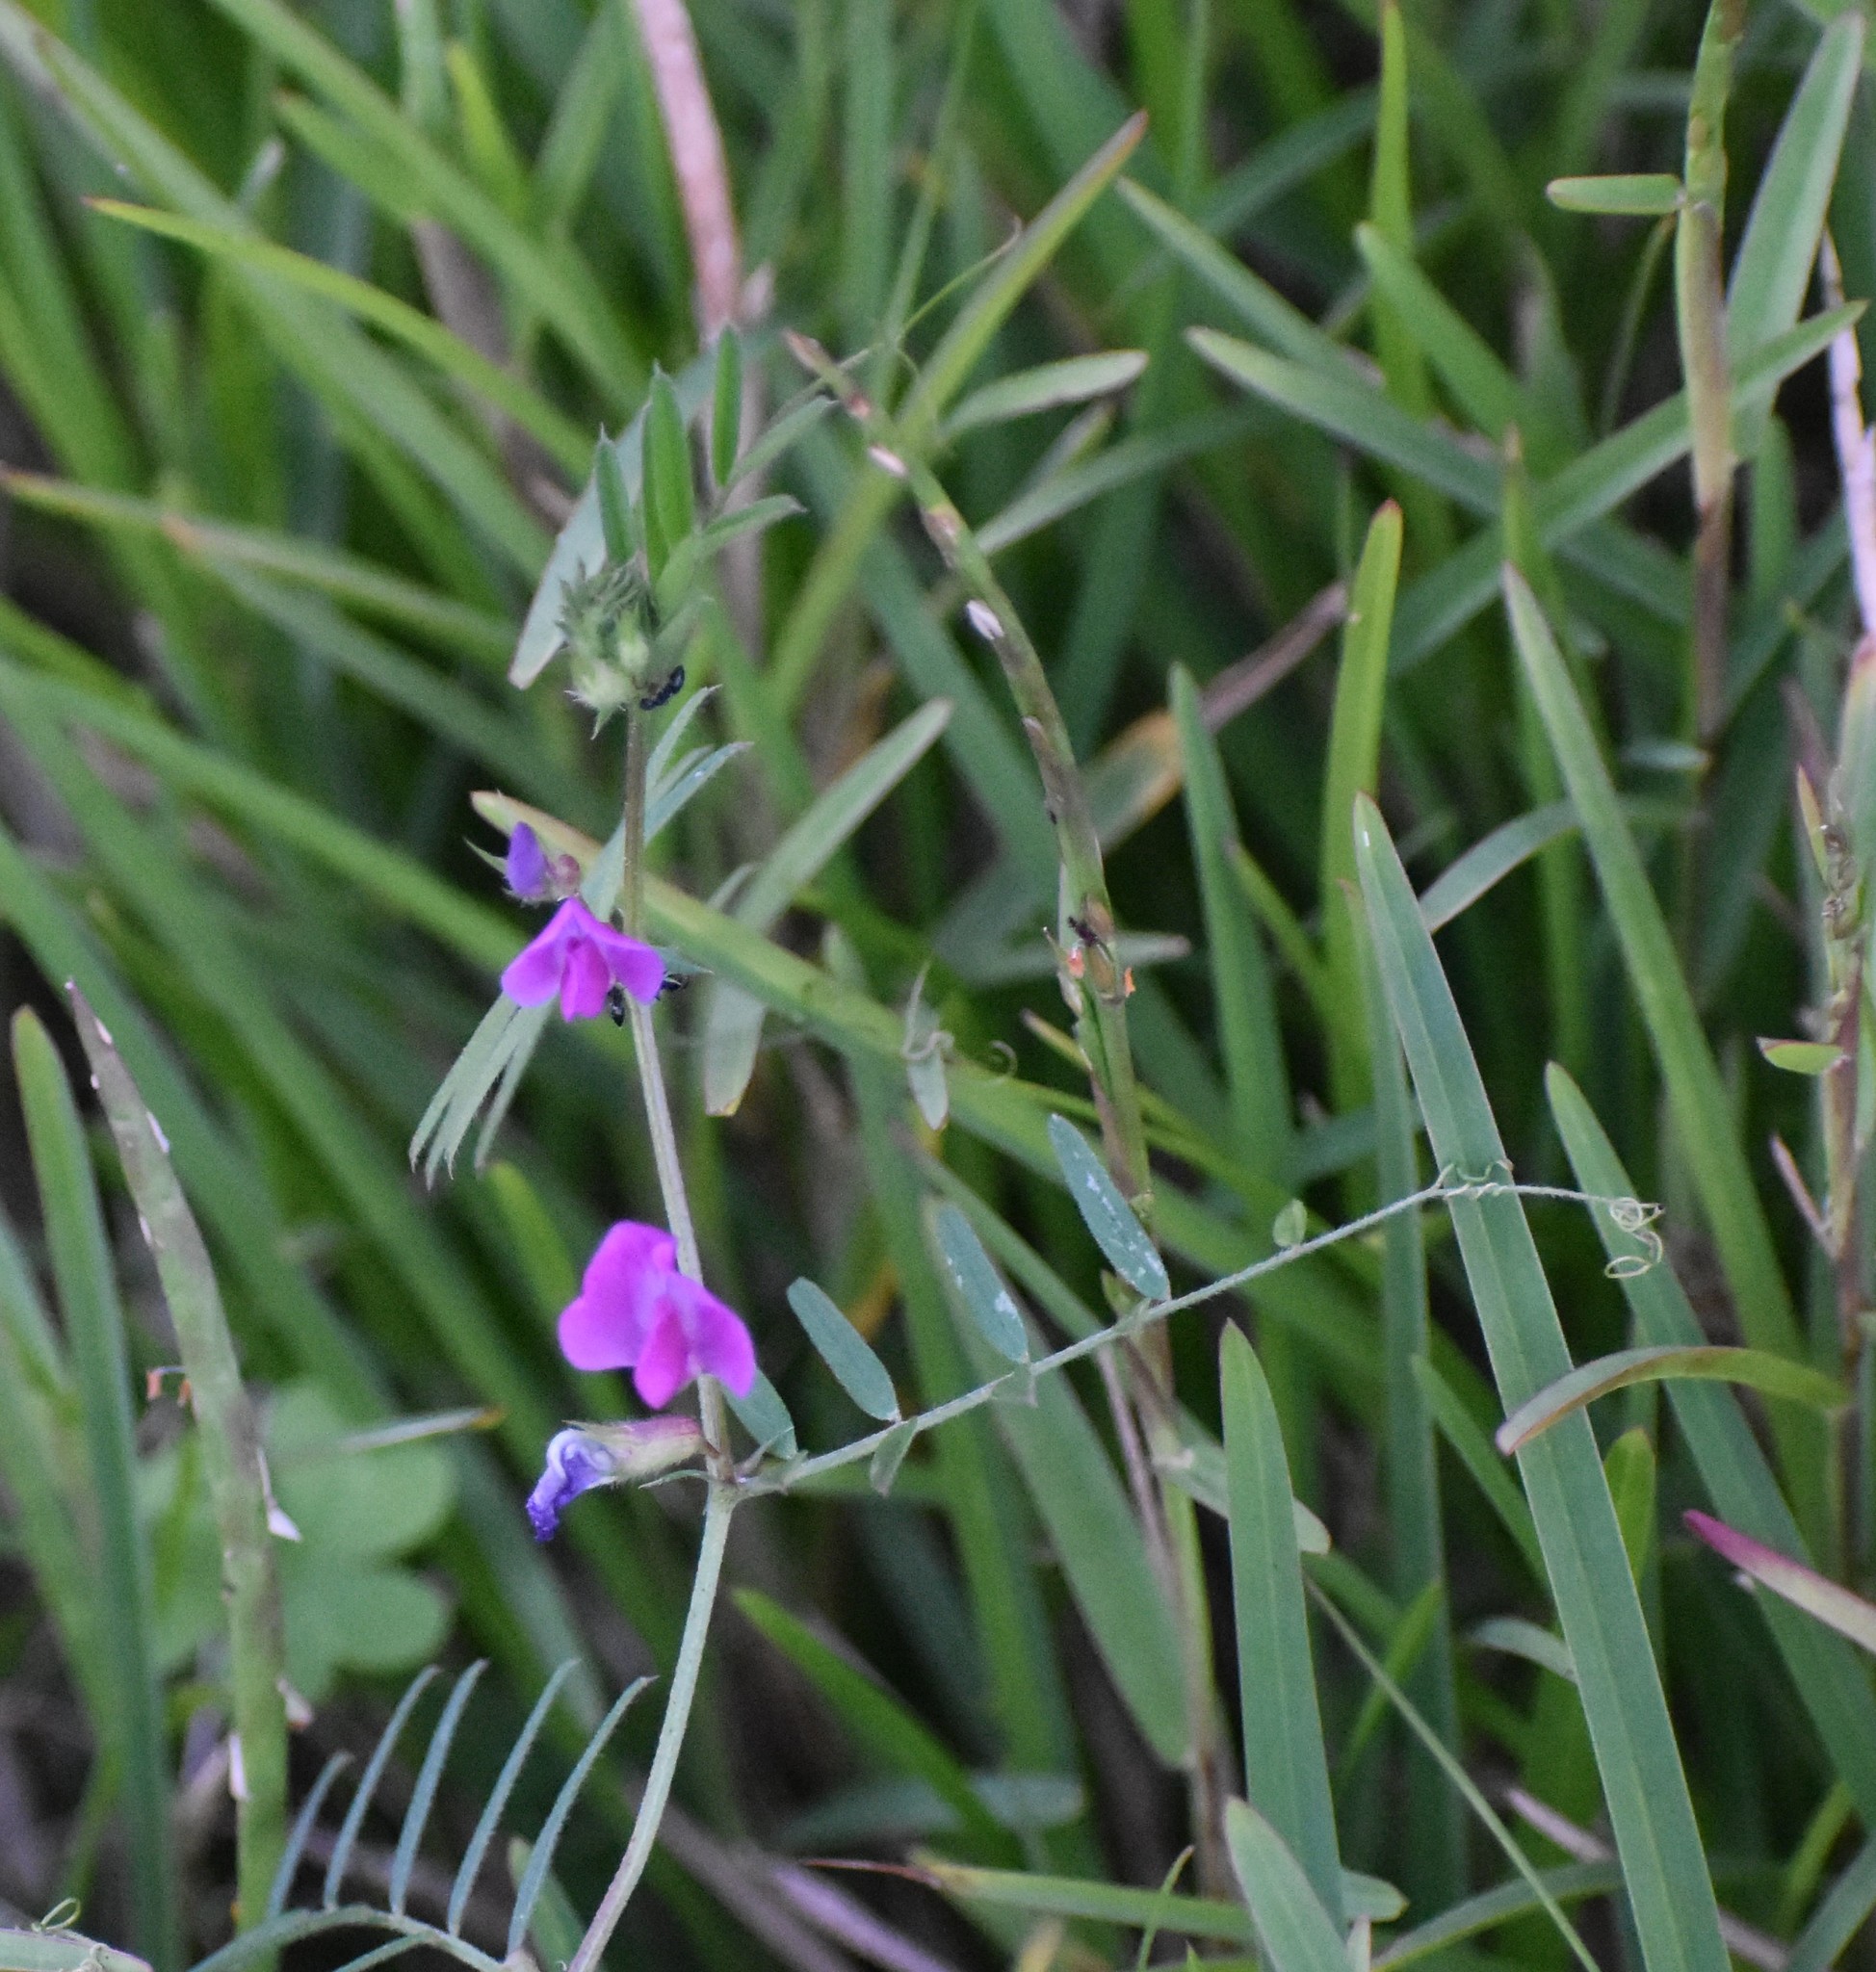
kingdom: Plantae
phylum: Tracheophyta
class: Magnoliopsida
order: Fabales
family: Fabaceae
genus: Vicia
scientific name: Vicia sativa
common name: Garden vetch
